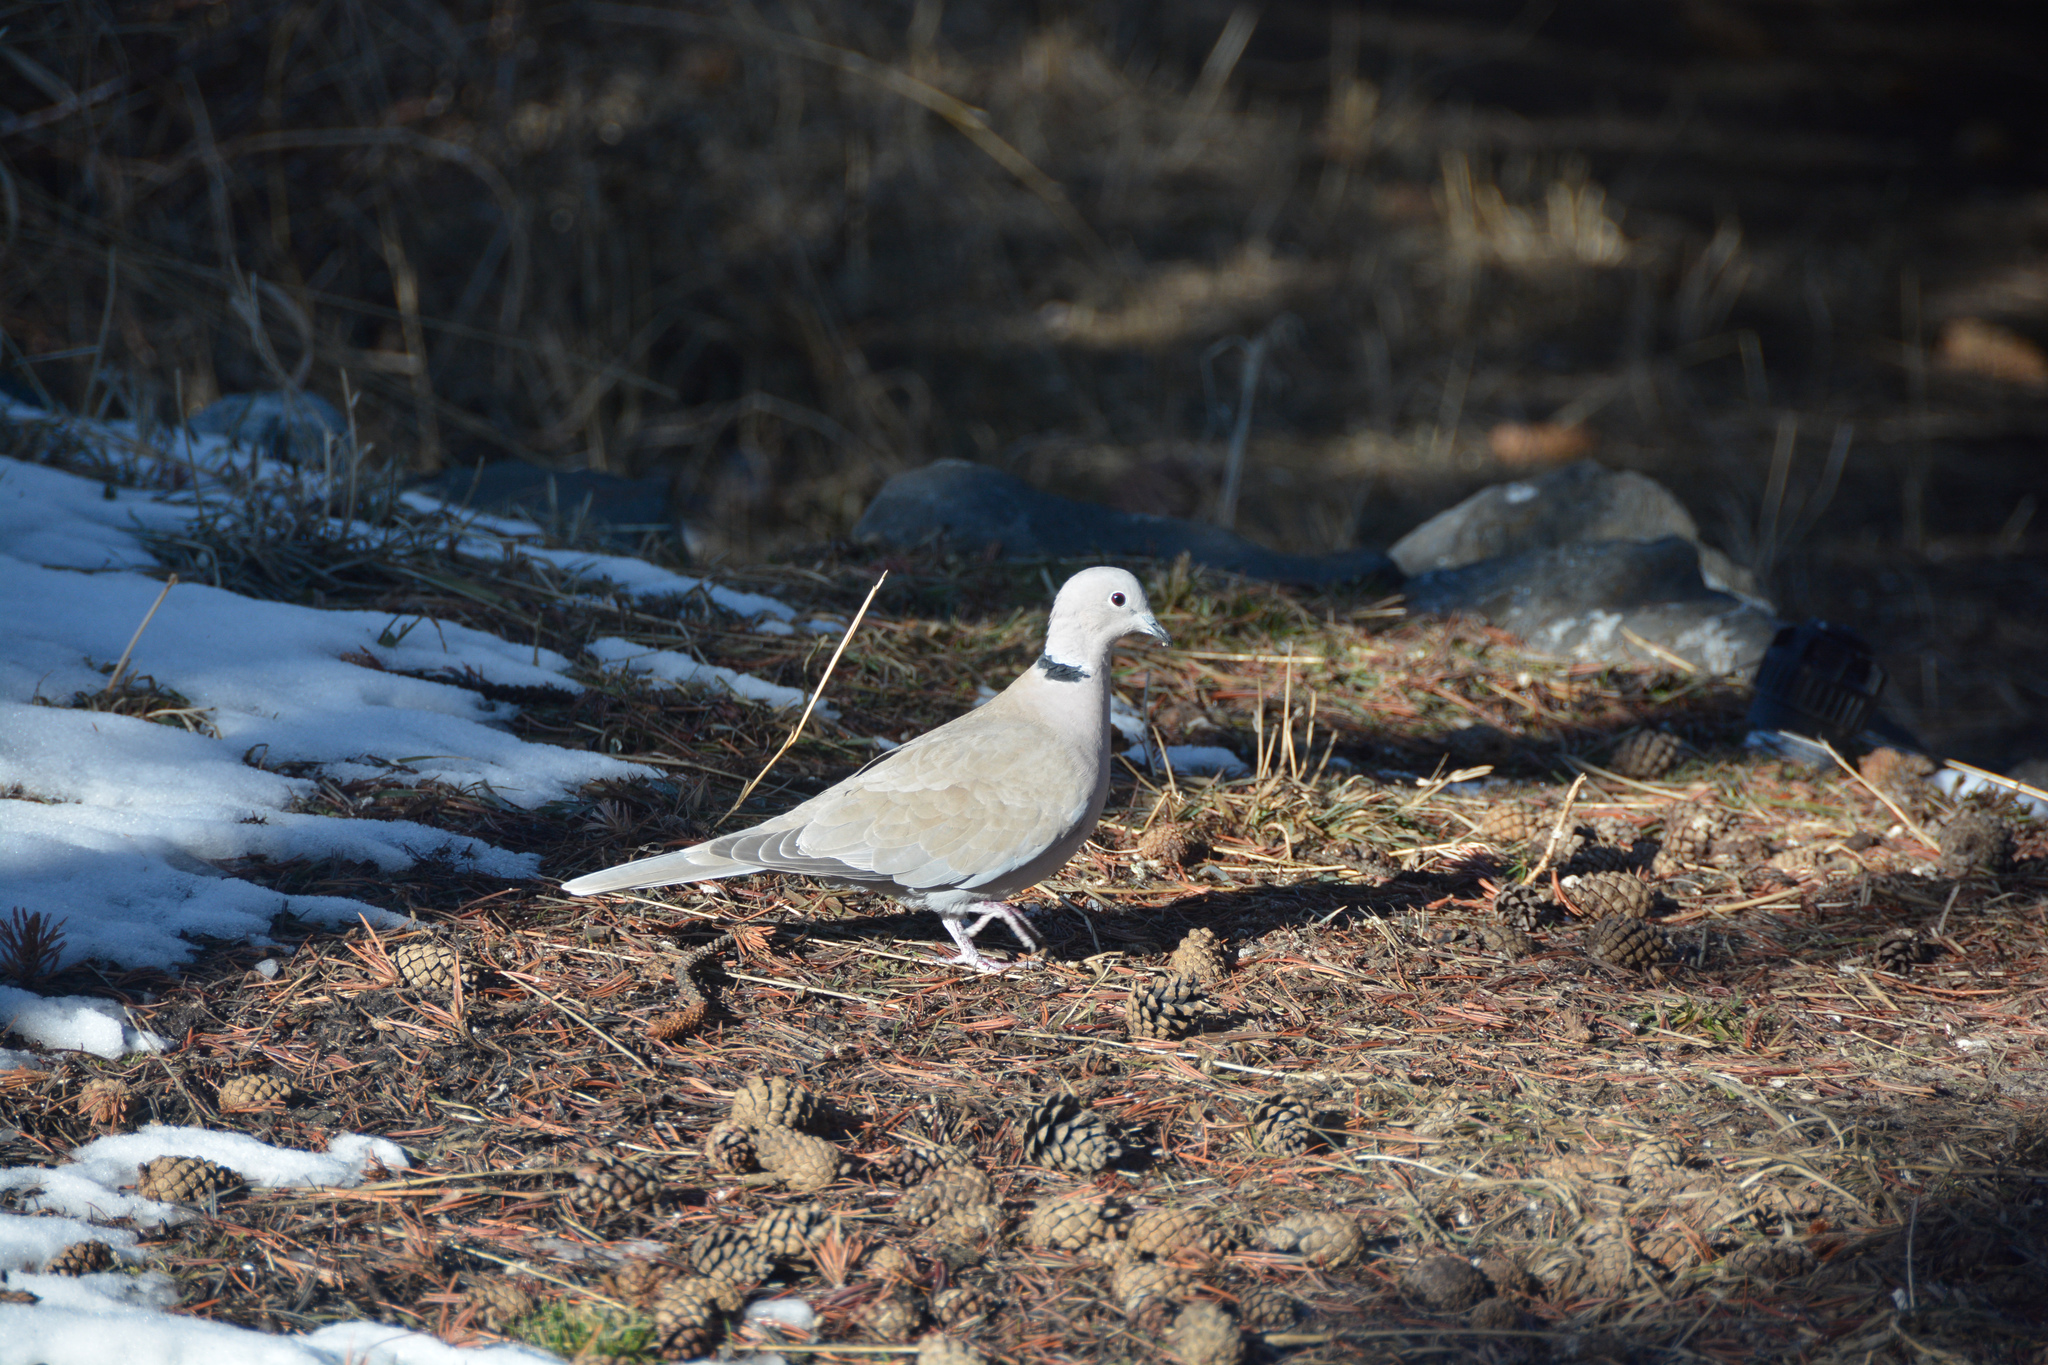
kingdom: Animalia
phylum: Chordata
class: Aves
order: Columbiformes
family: Columbidae
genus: Streptopelia
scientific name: Streptopelia decaocto
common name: Eurasian collared dove
